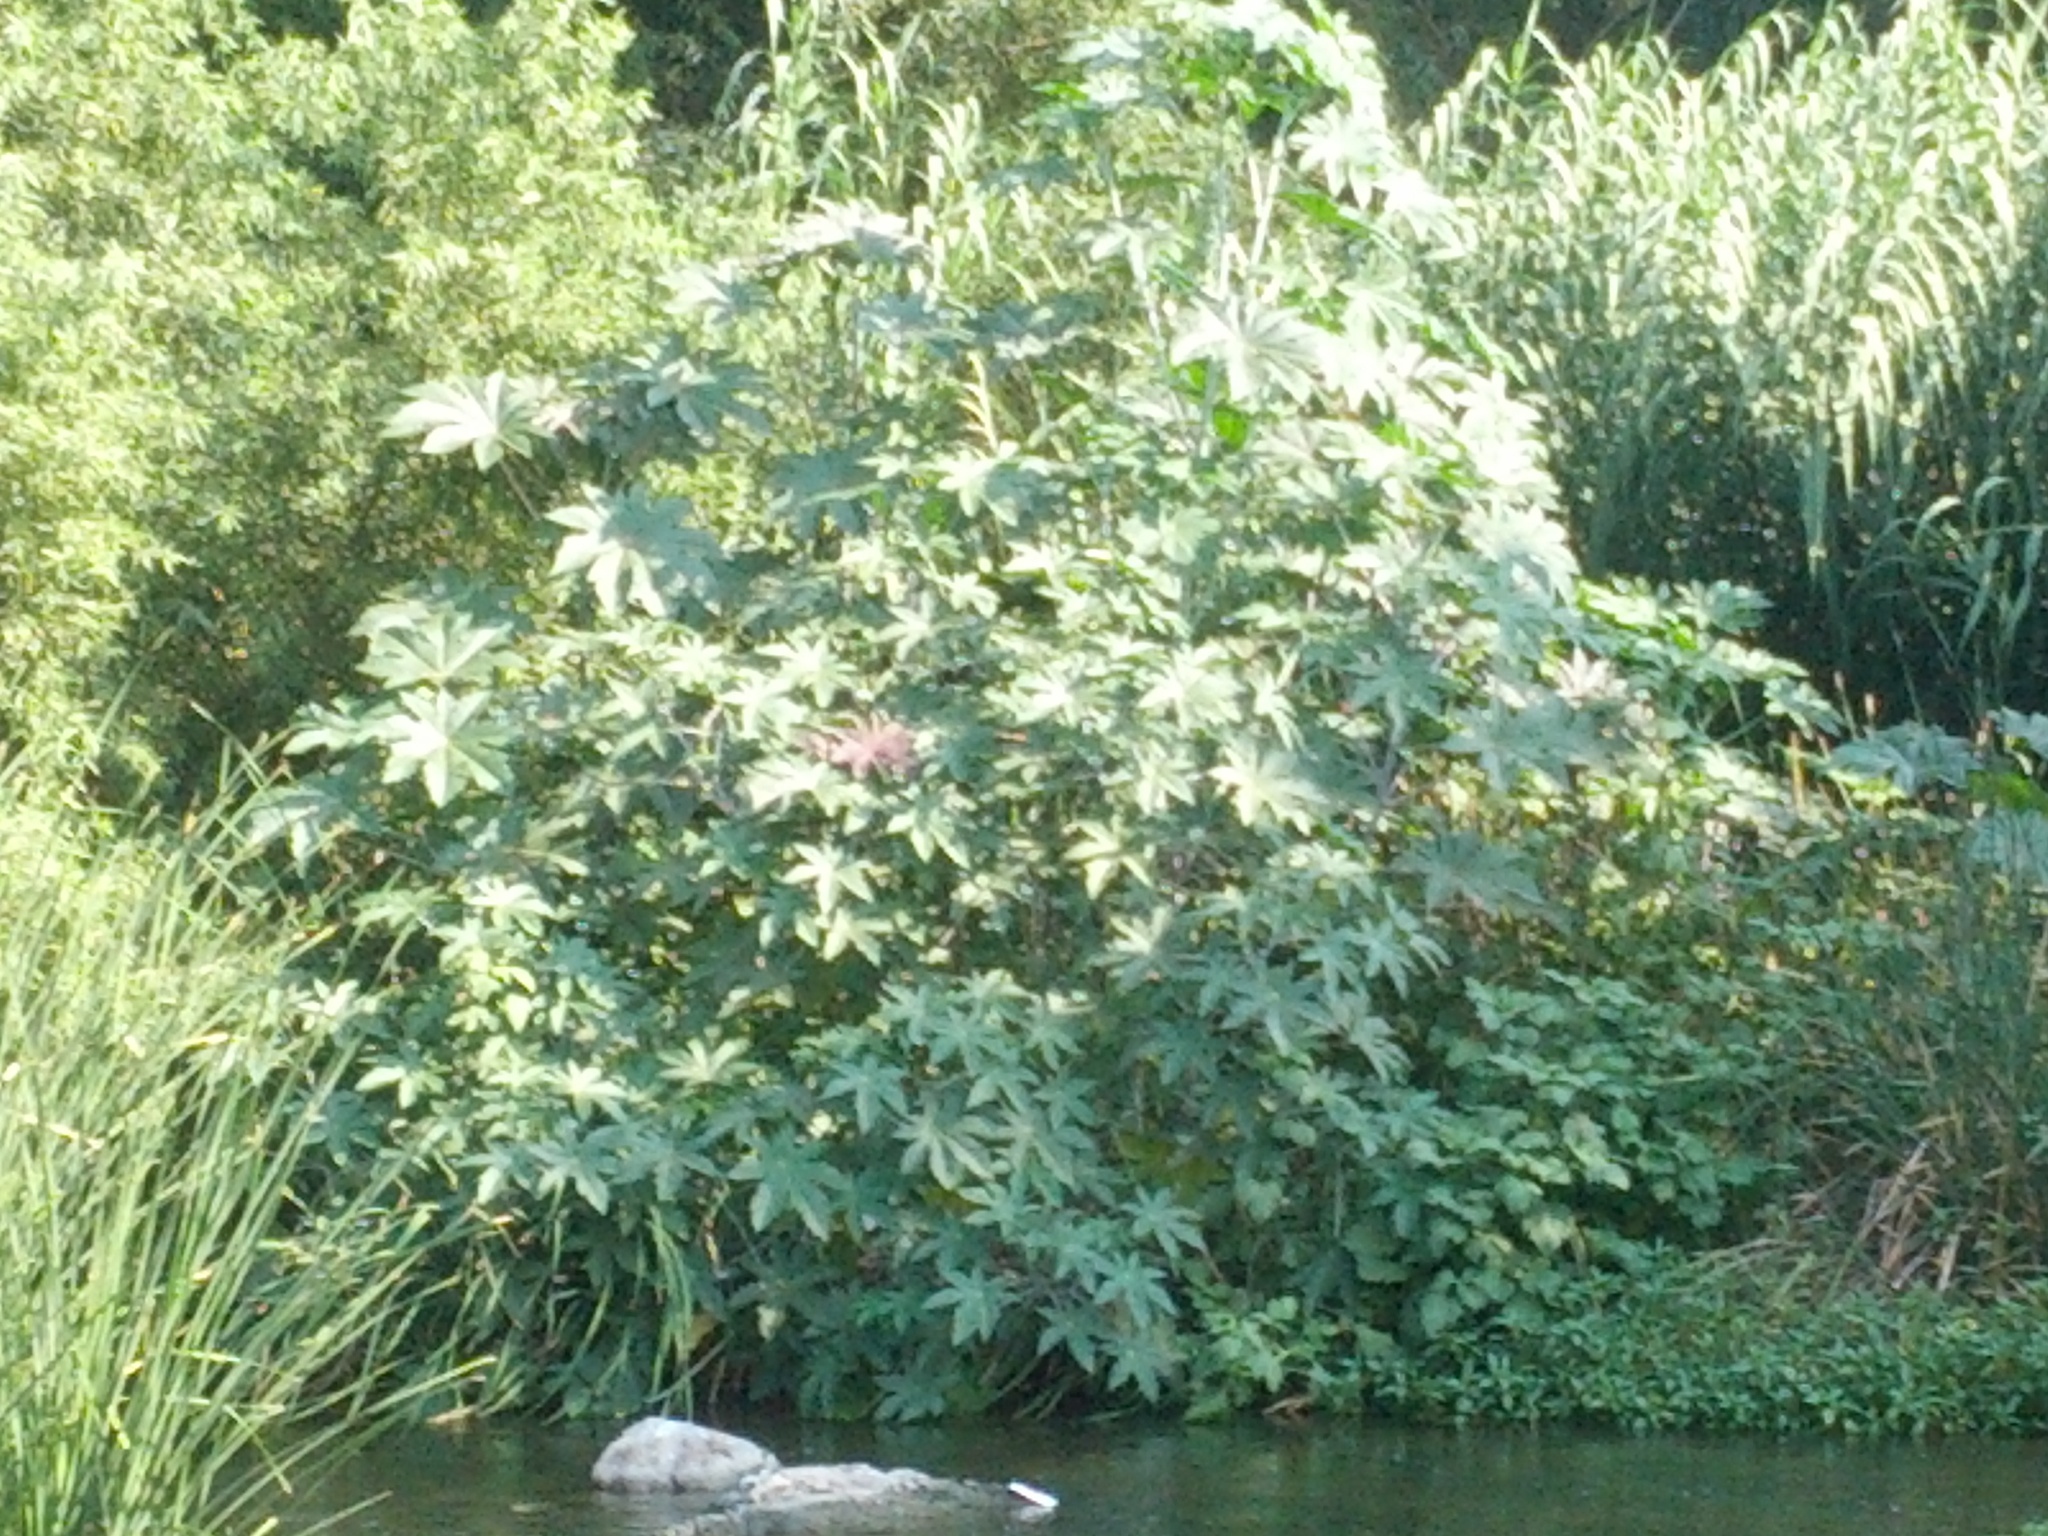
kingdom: Plantae
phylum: Tracheophyta
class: Magnoliopsida
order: Malpighiales
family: Euphorbiaceae
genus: Ricinus
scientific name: Ricinus communis
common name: Castor-oil-plant
